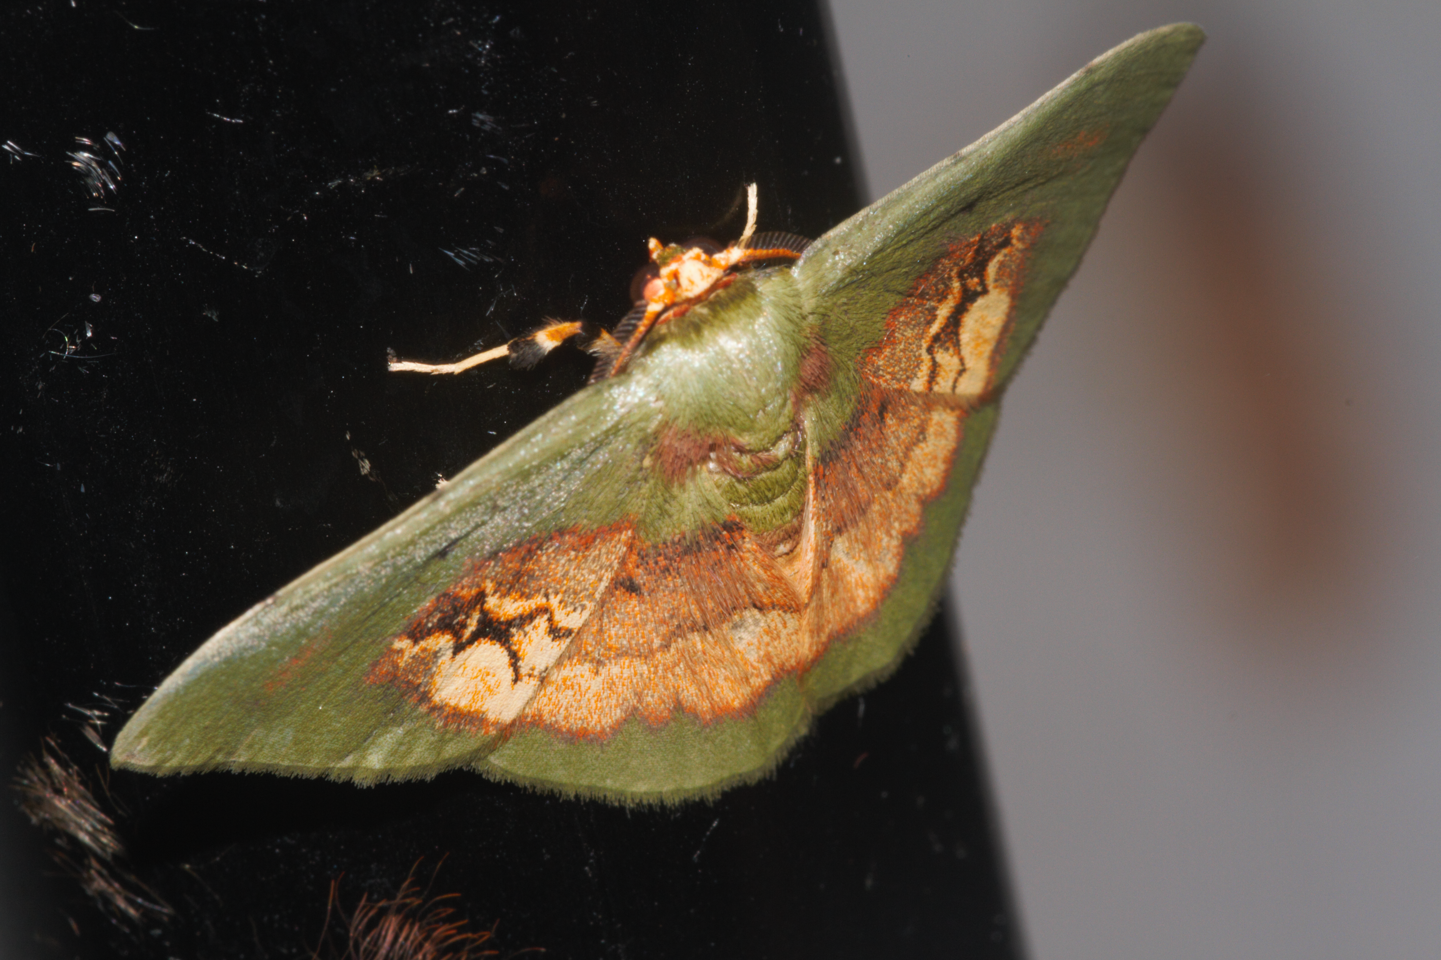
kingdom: Animalia
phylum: Arthropoda
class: Insecta
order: Lepidoptera
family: Geometridae
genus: Pyrochlora
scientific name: Pyrochlora majorcula
